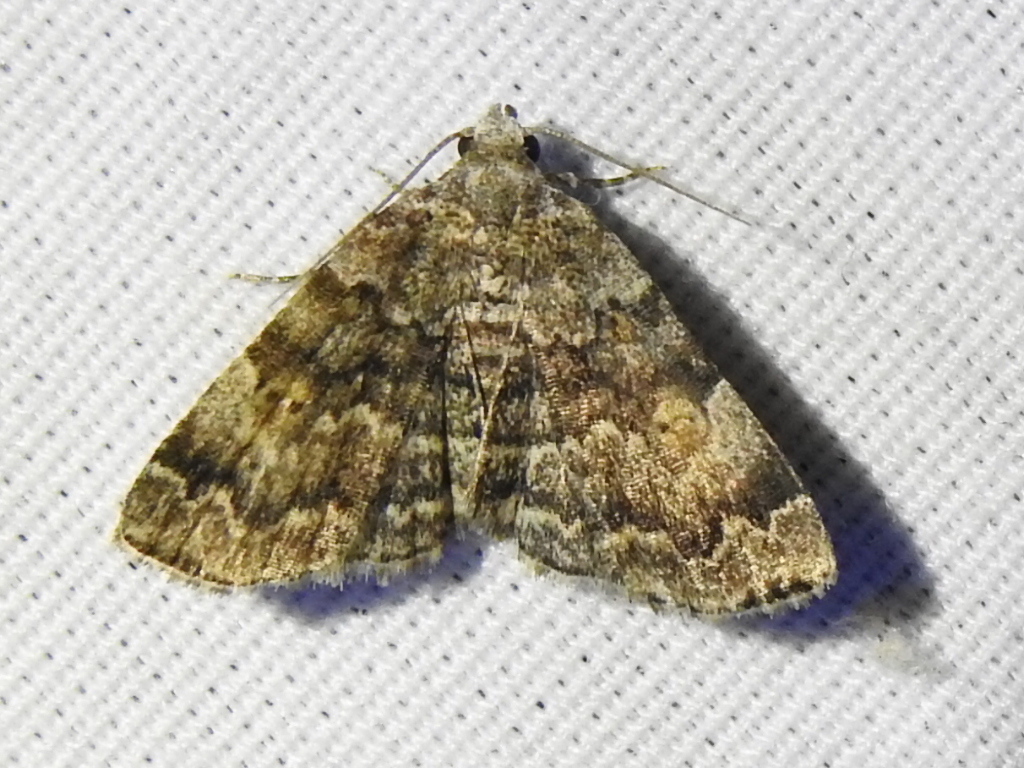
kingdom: Animalia
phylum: Arthropoda
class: Insecta
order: Lepidoptera
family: Erebidae
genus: Idia
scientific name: Idia americalis
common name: American idia moth
